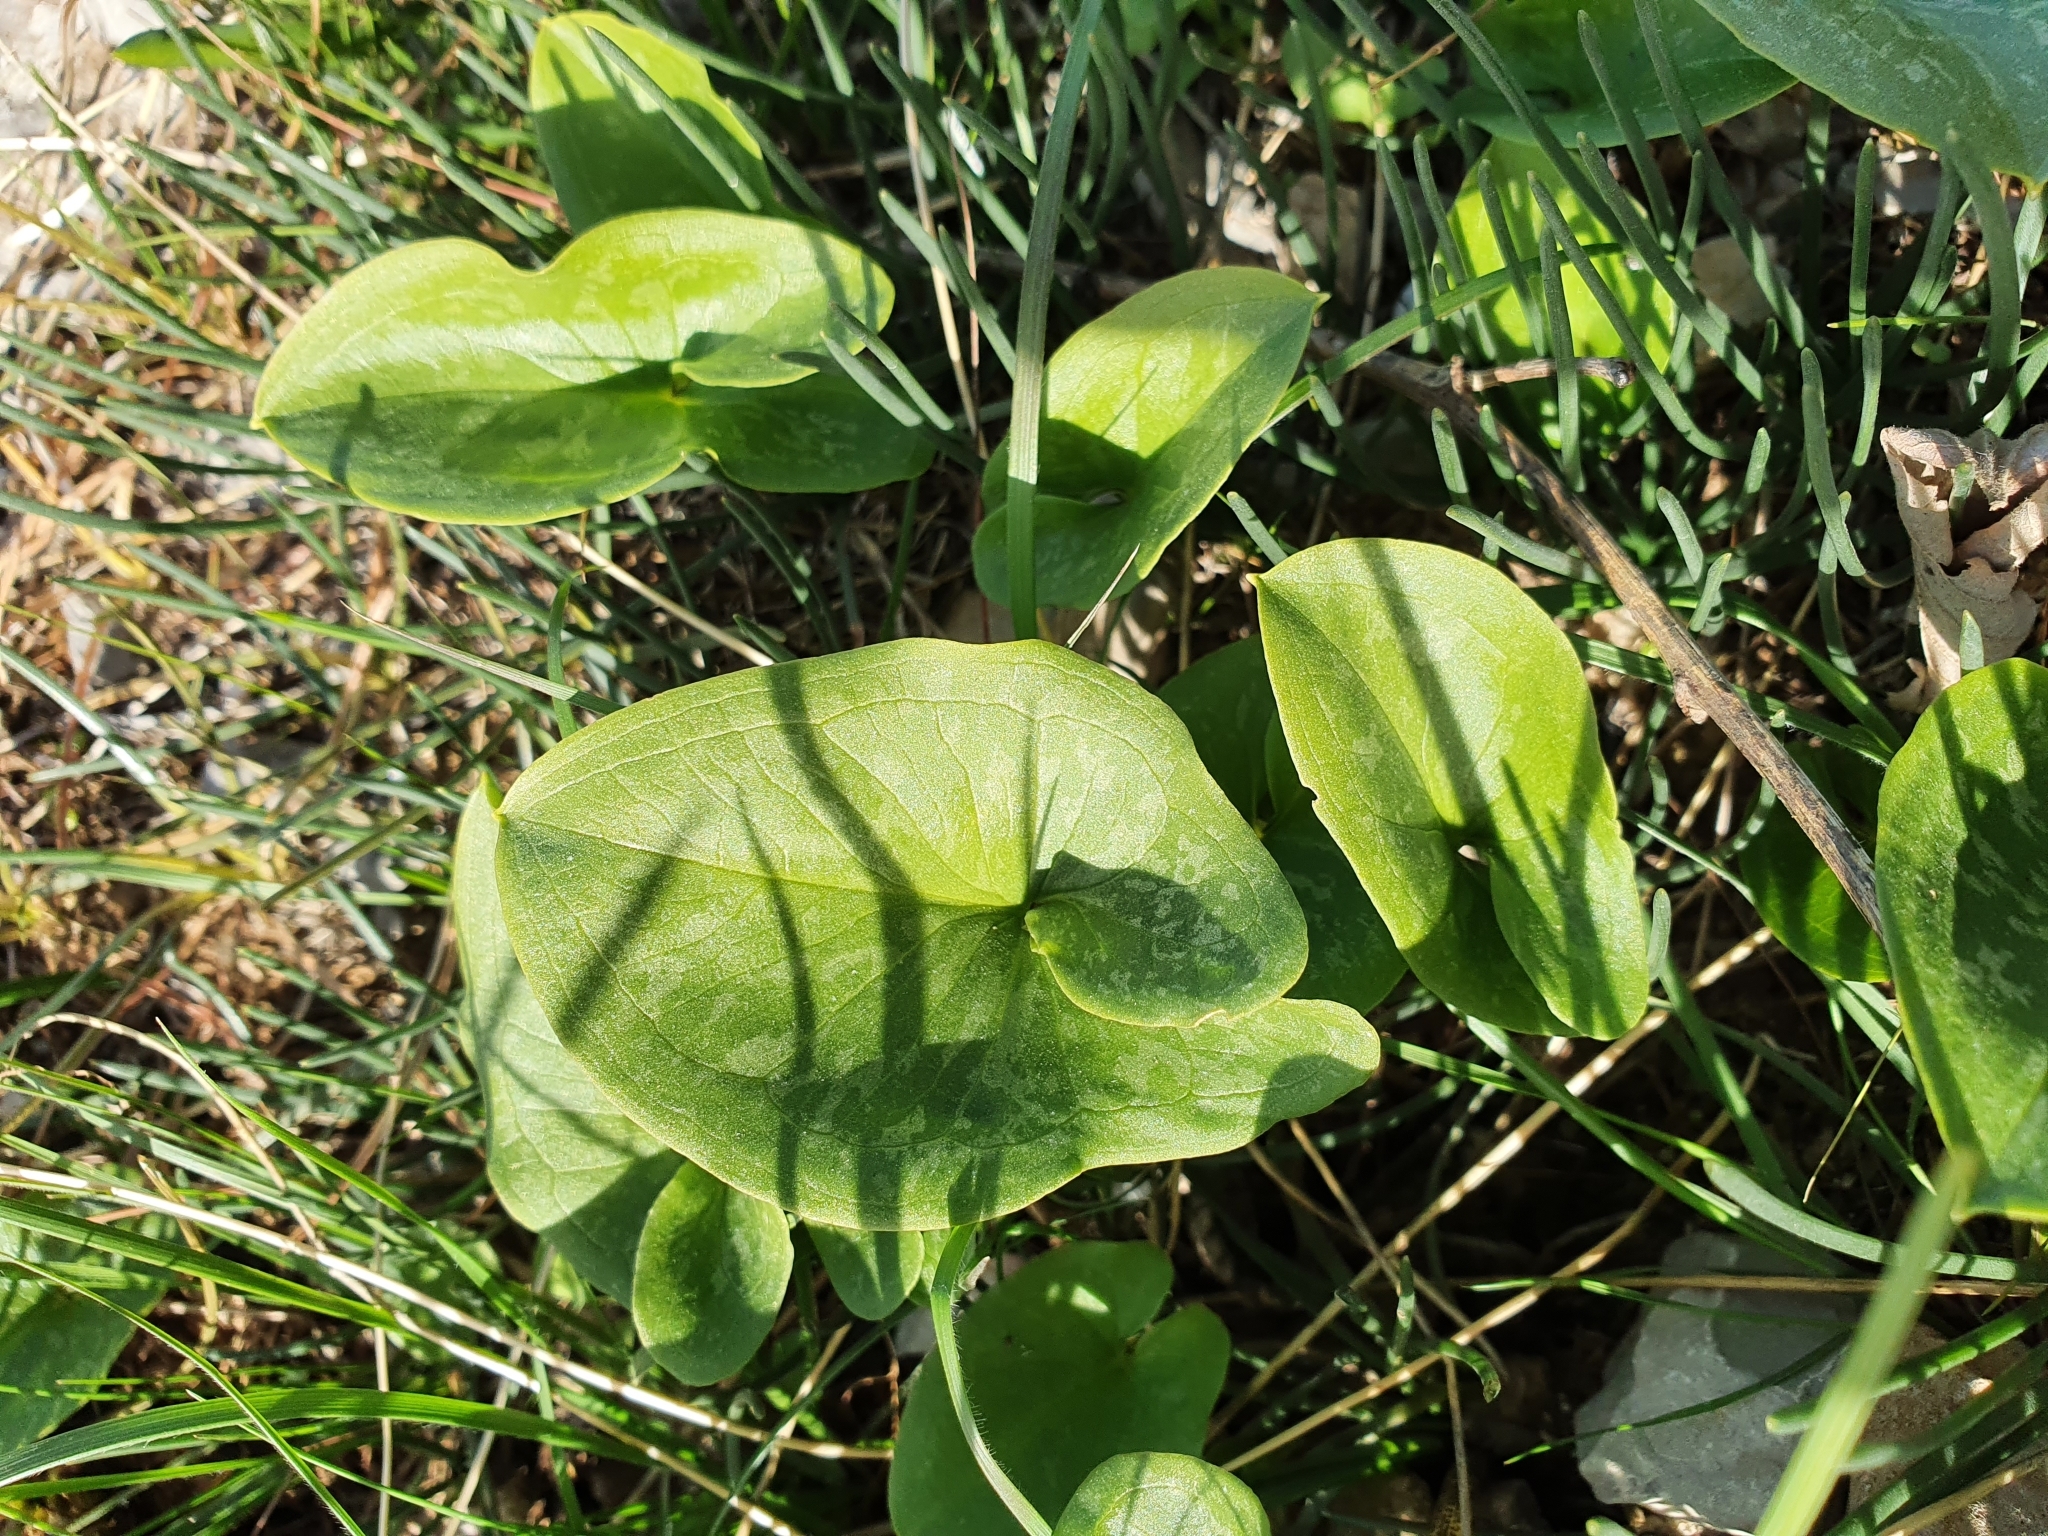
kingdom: Plantae
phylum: Tracheophyta
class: Liliopsida
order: Alismatales
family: Araceae
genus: Arisarum
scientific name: Arisarum vulgare
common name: Common arisarum
